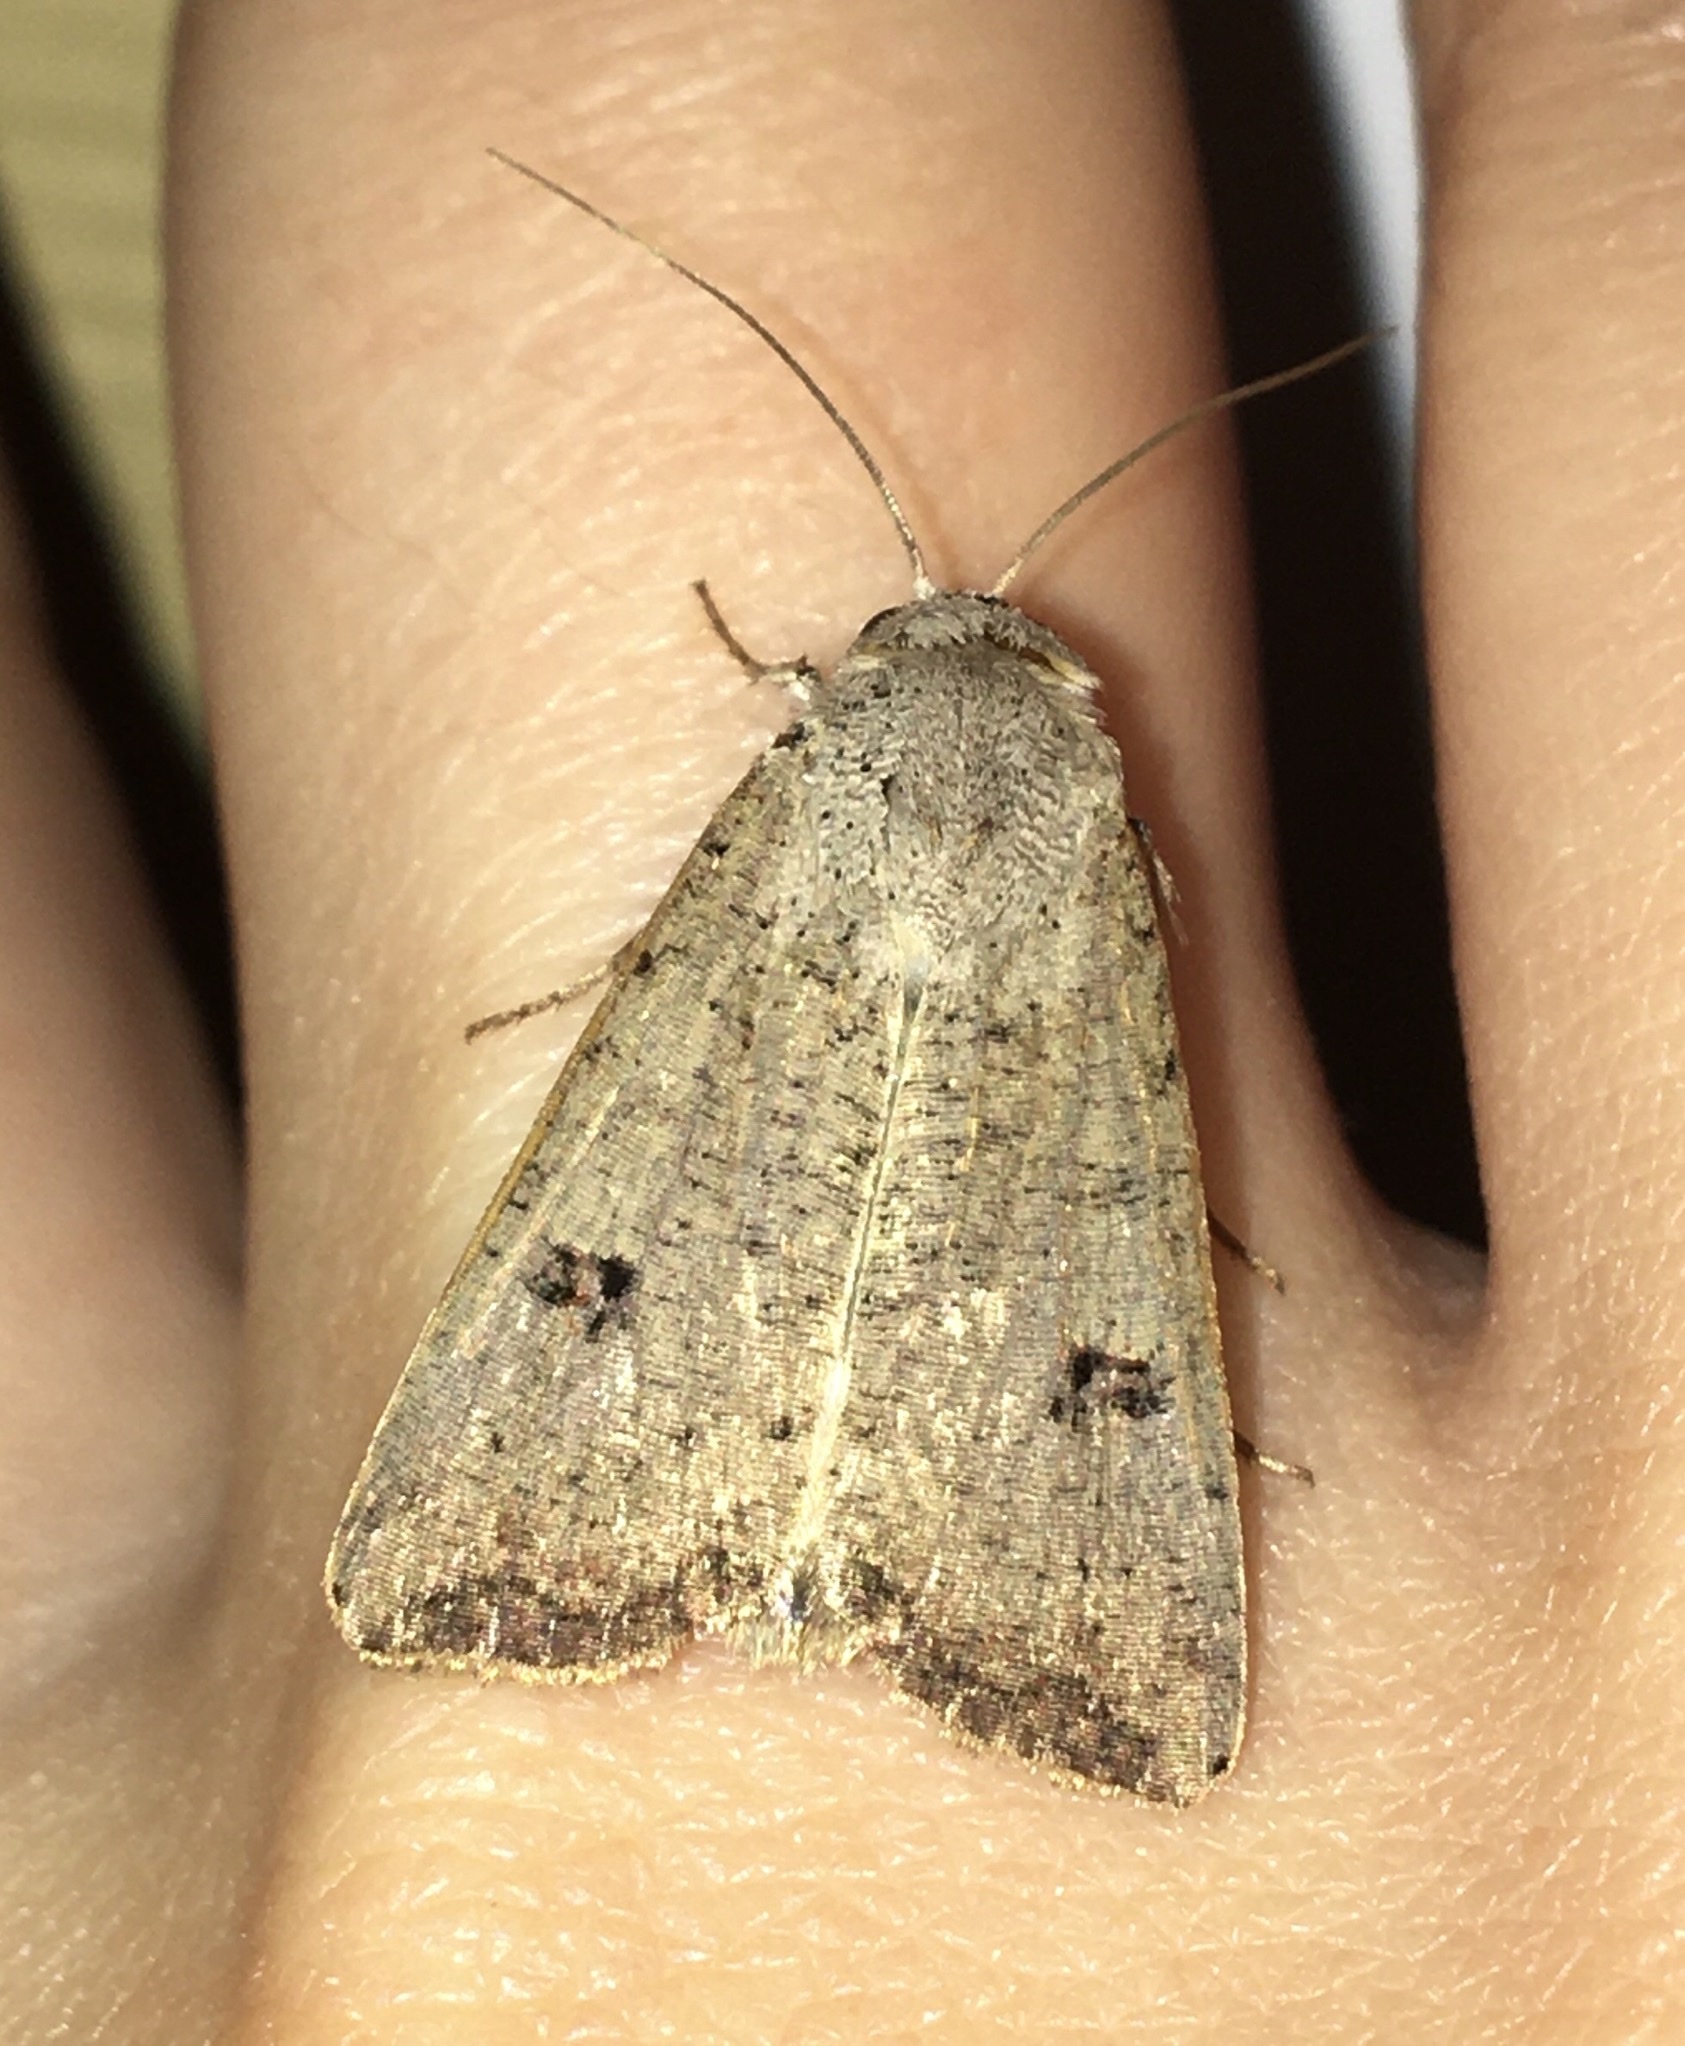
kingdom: Animalia
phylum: Arthropoda
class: Insecta
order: Lepidoptera
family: Noctuidae
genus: Anicla
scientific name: Anicla infecta
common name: Green cutworm
